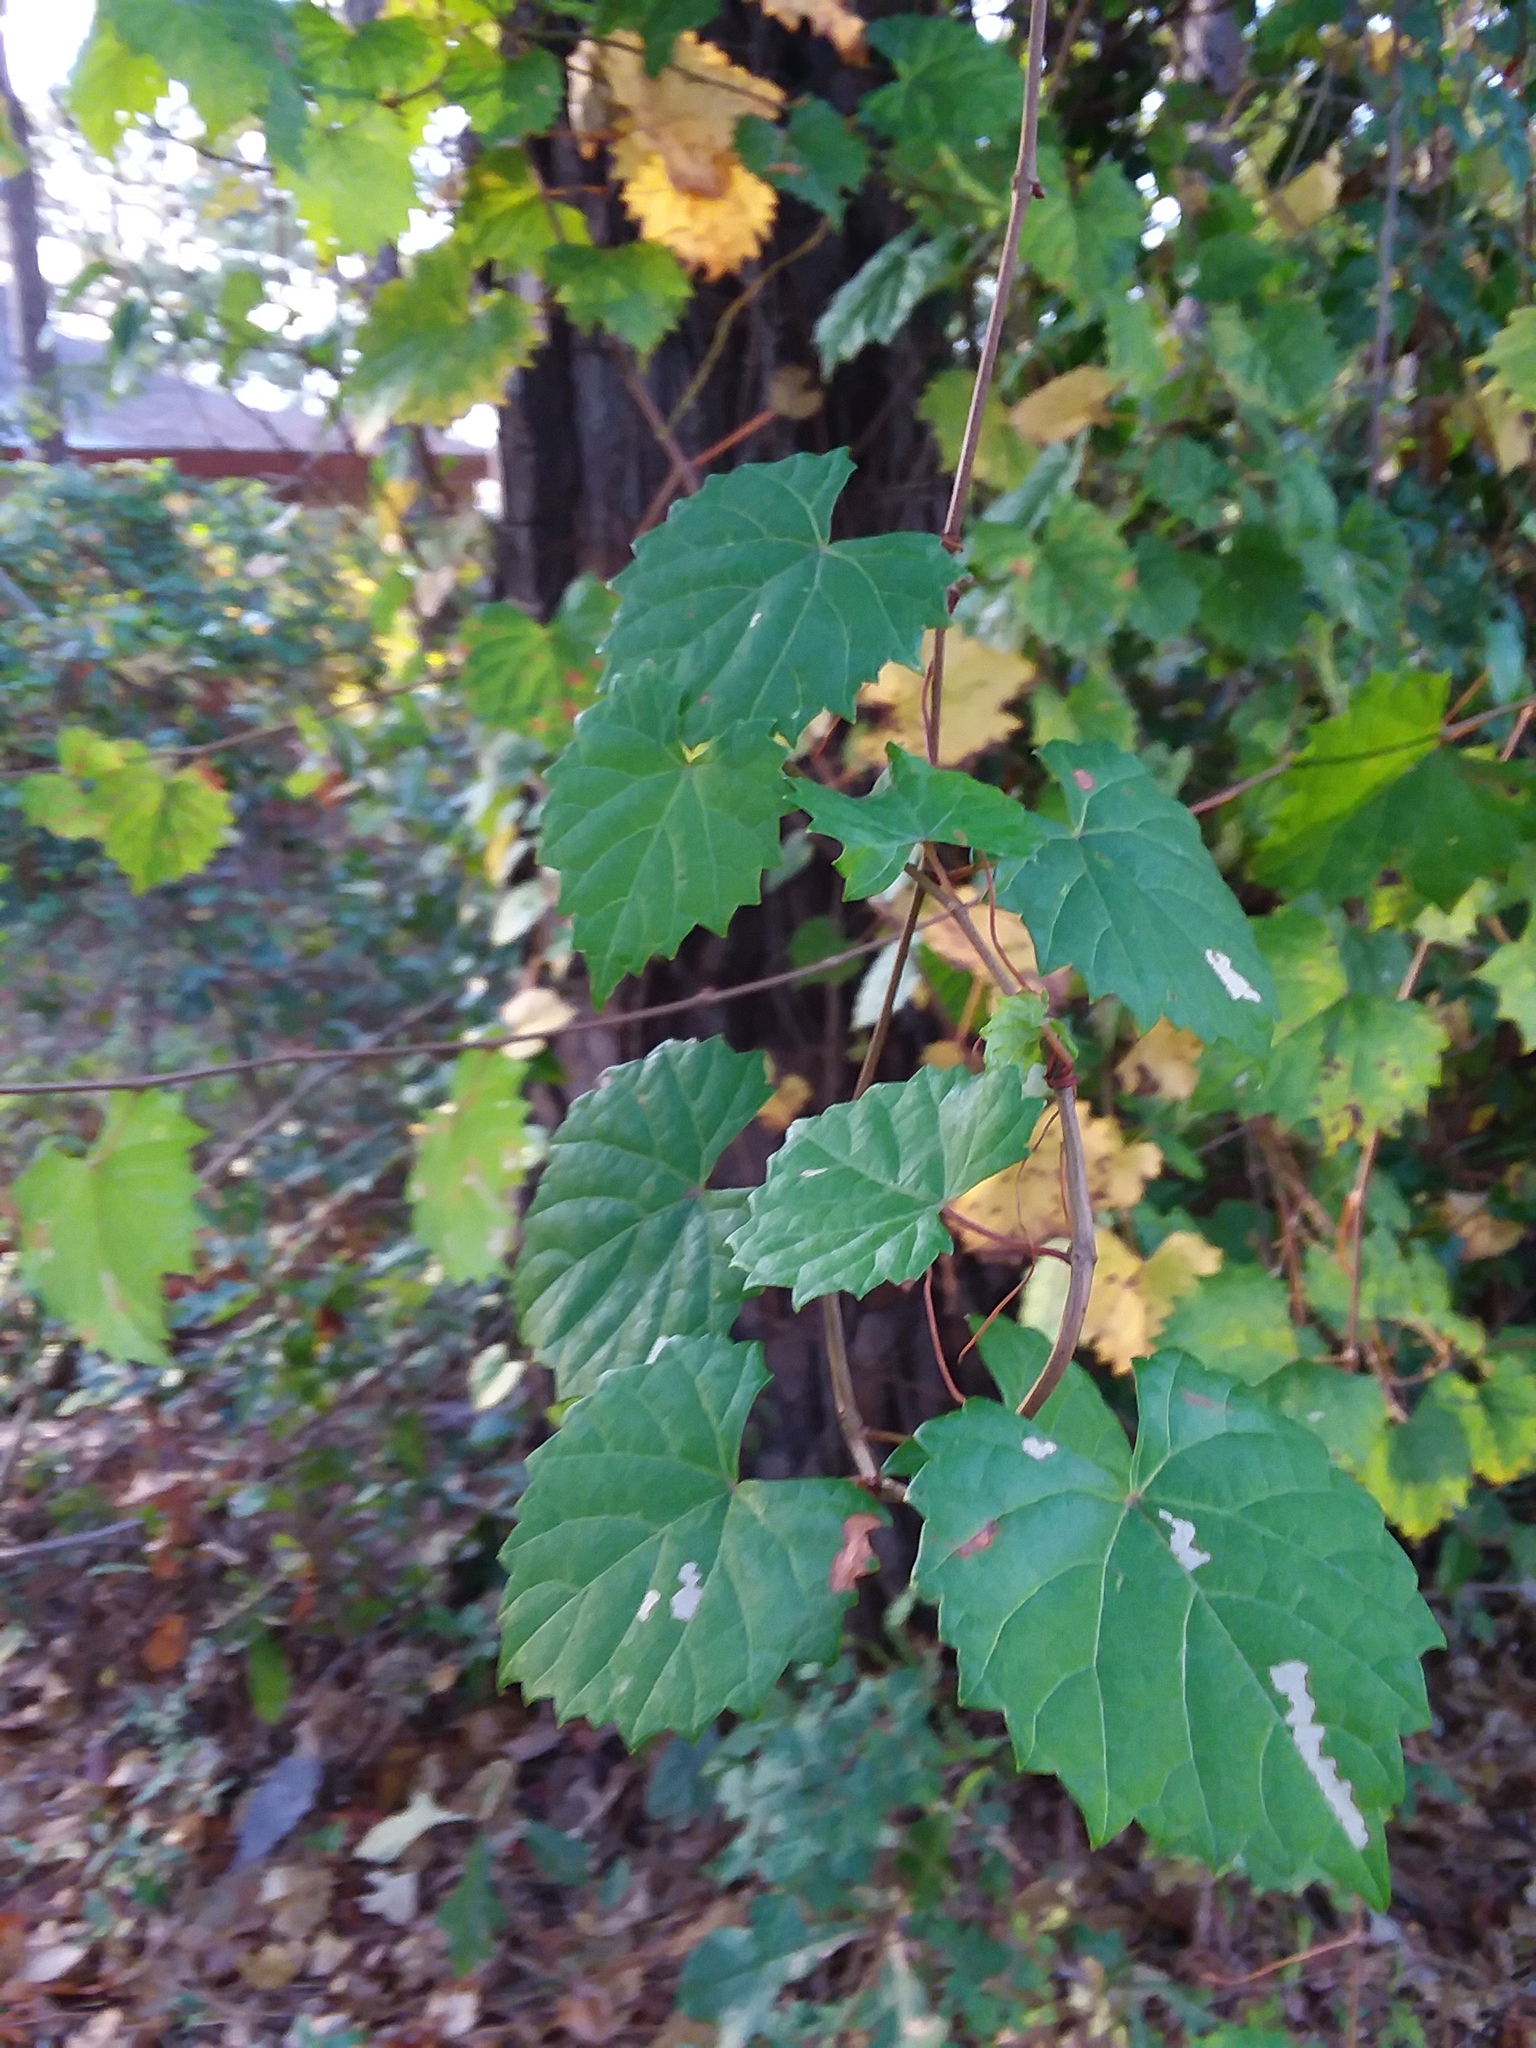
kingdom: Plantae
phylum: Tracheophyta
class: Magnoliopsida
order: Vitales
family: Vitaceae
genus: Vitis
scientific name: Vitis rotundifolia
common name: Muscadine grape
